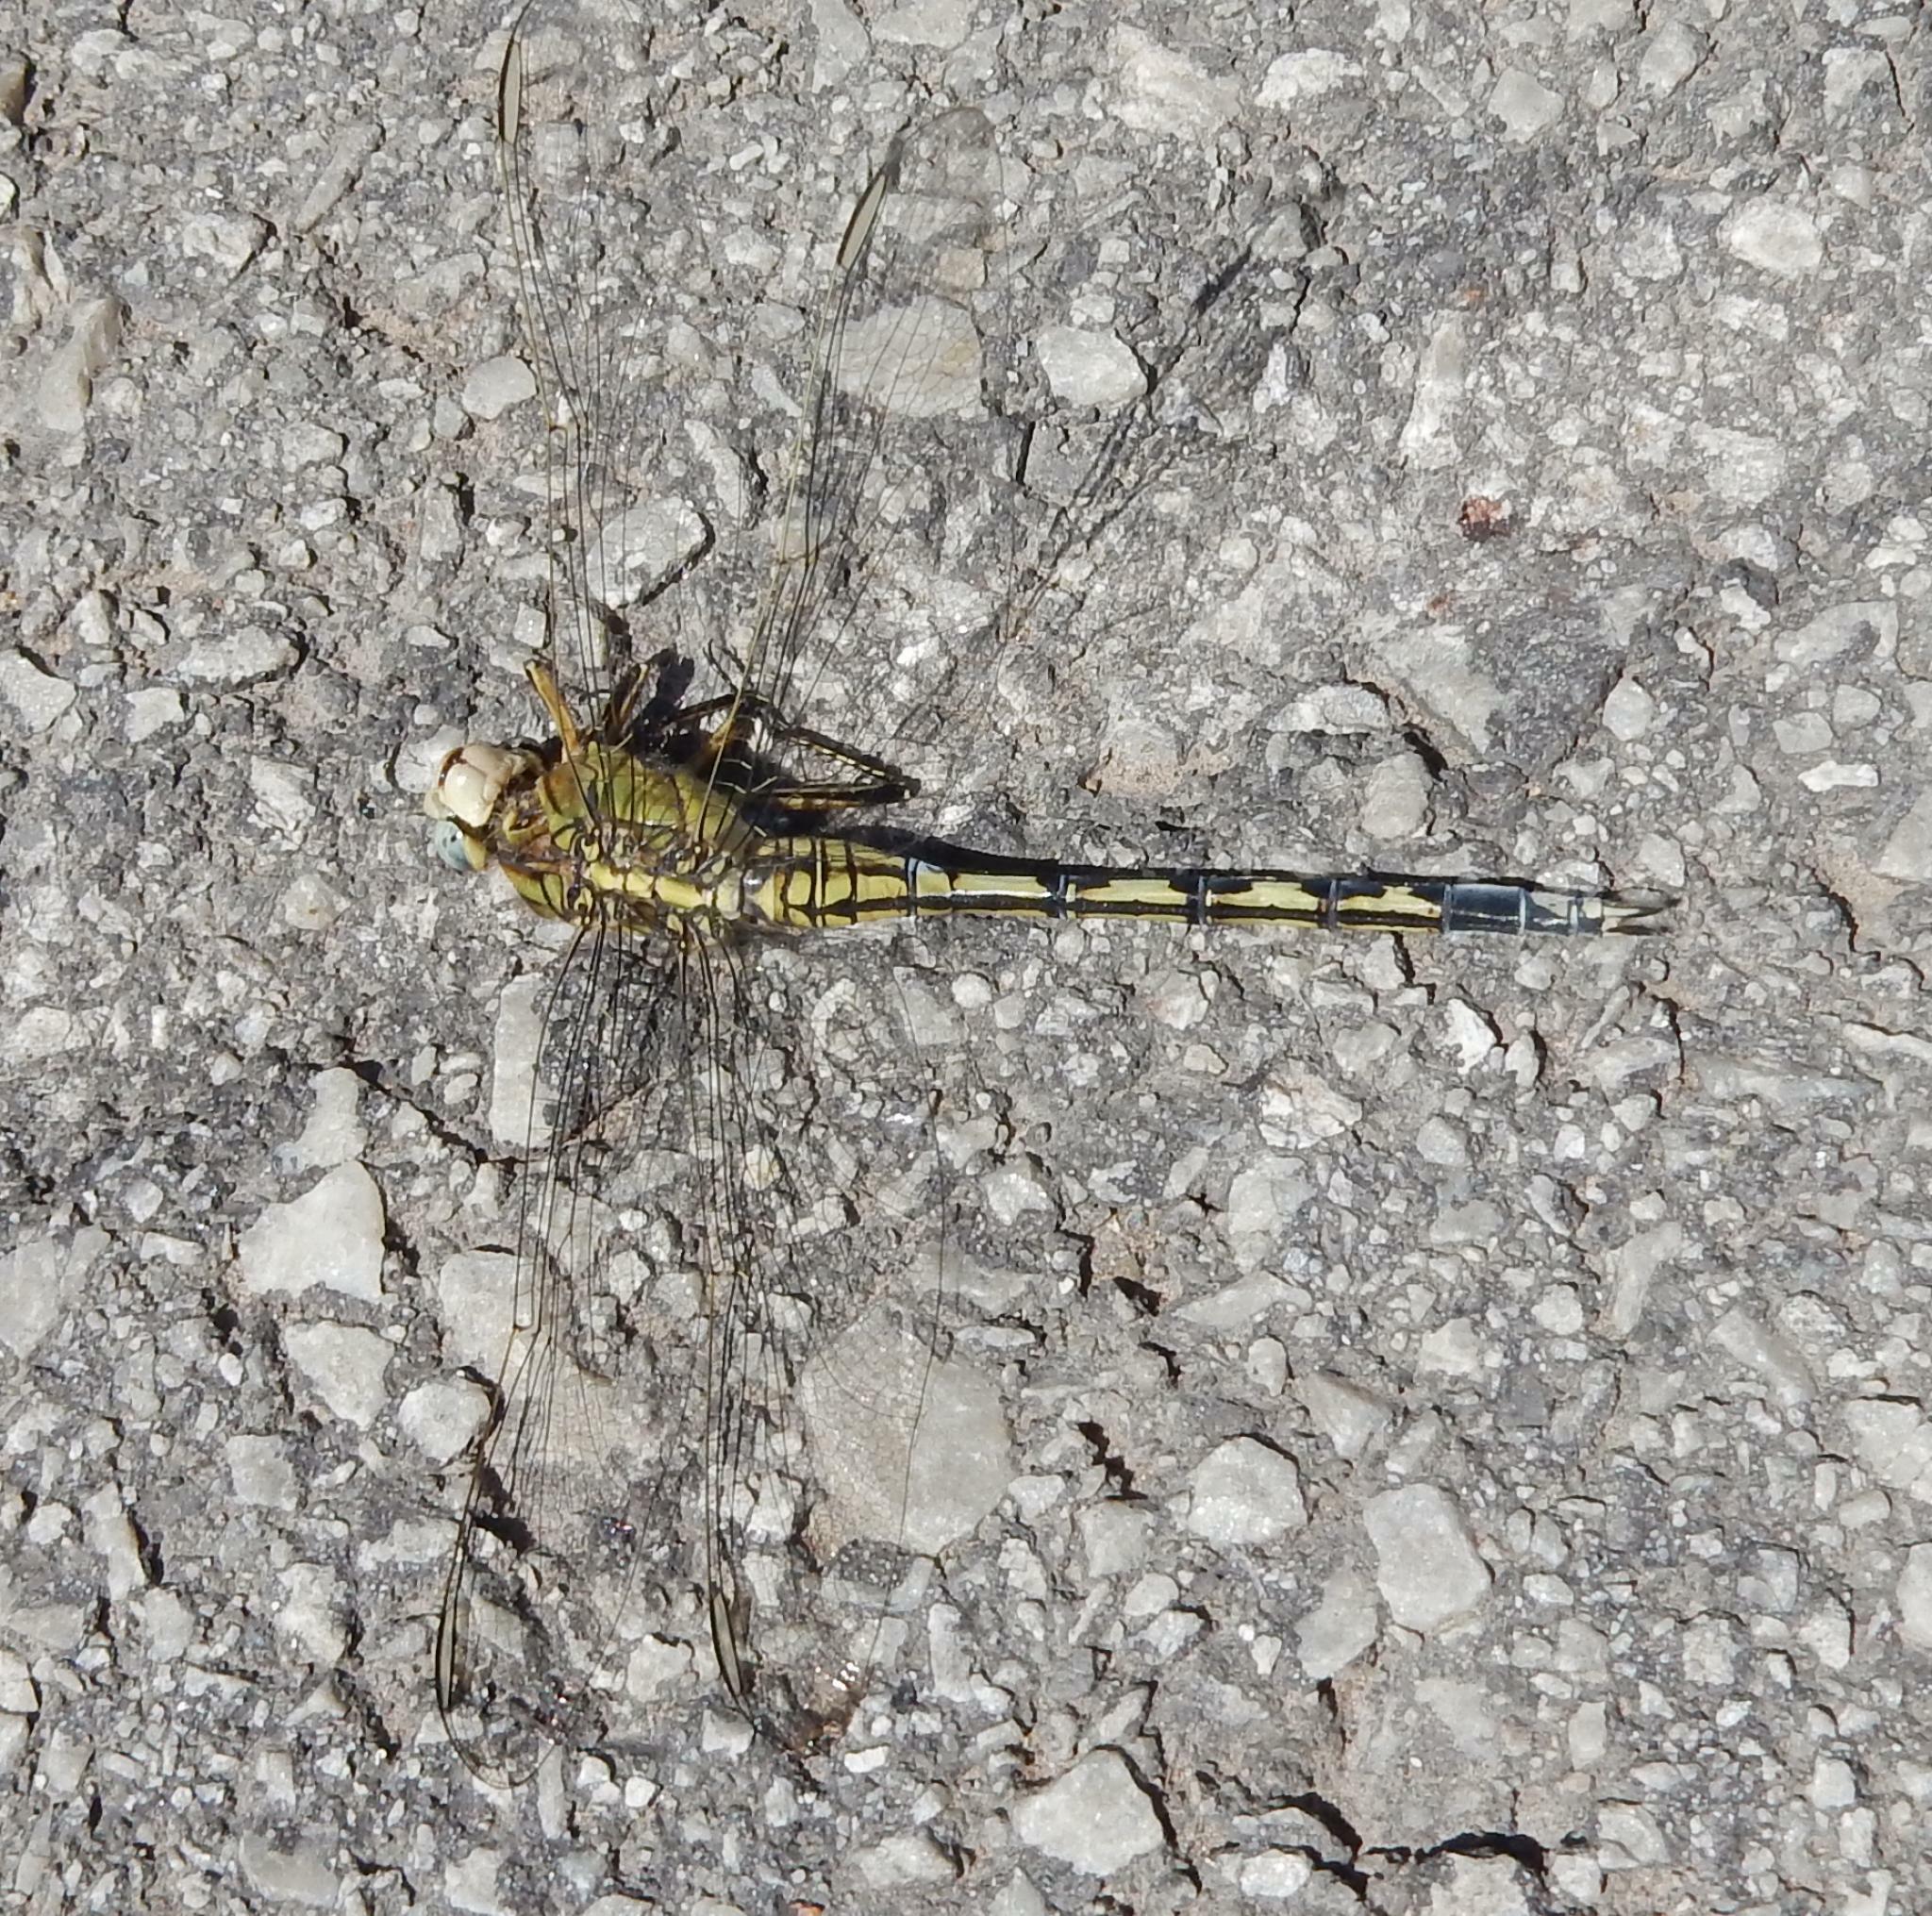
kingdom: Animalia
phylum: Arthropoda
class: Insecta
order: Odonata
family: Libellulidae
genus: Orthetrum
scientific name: Orthetrum trinacria
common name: Long skimmer
